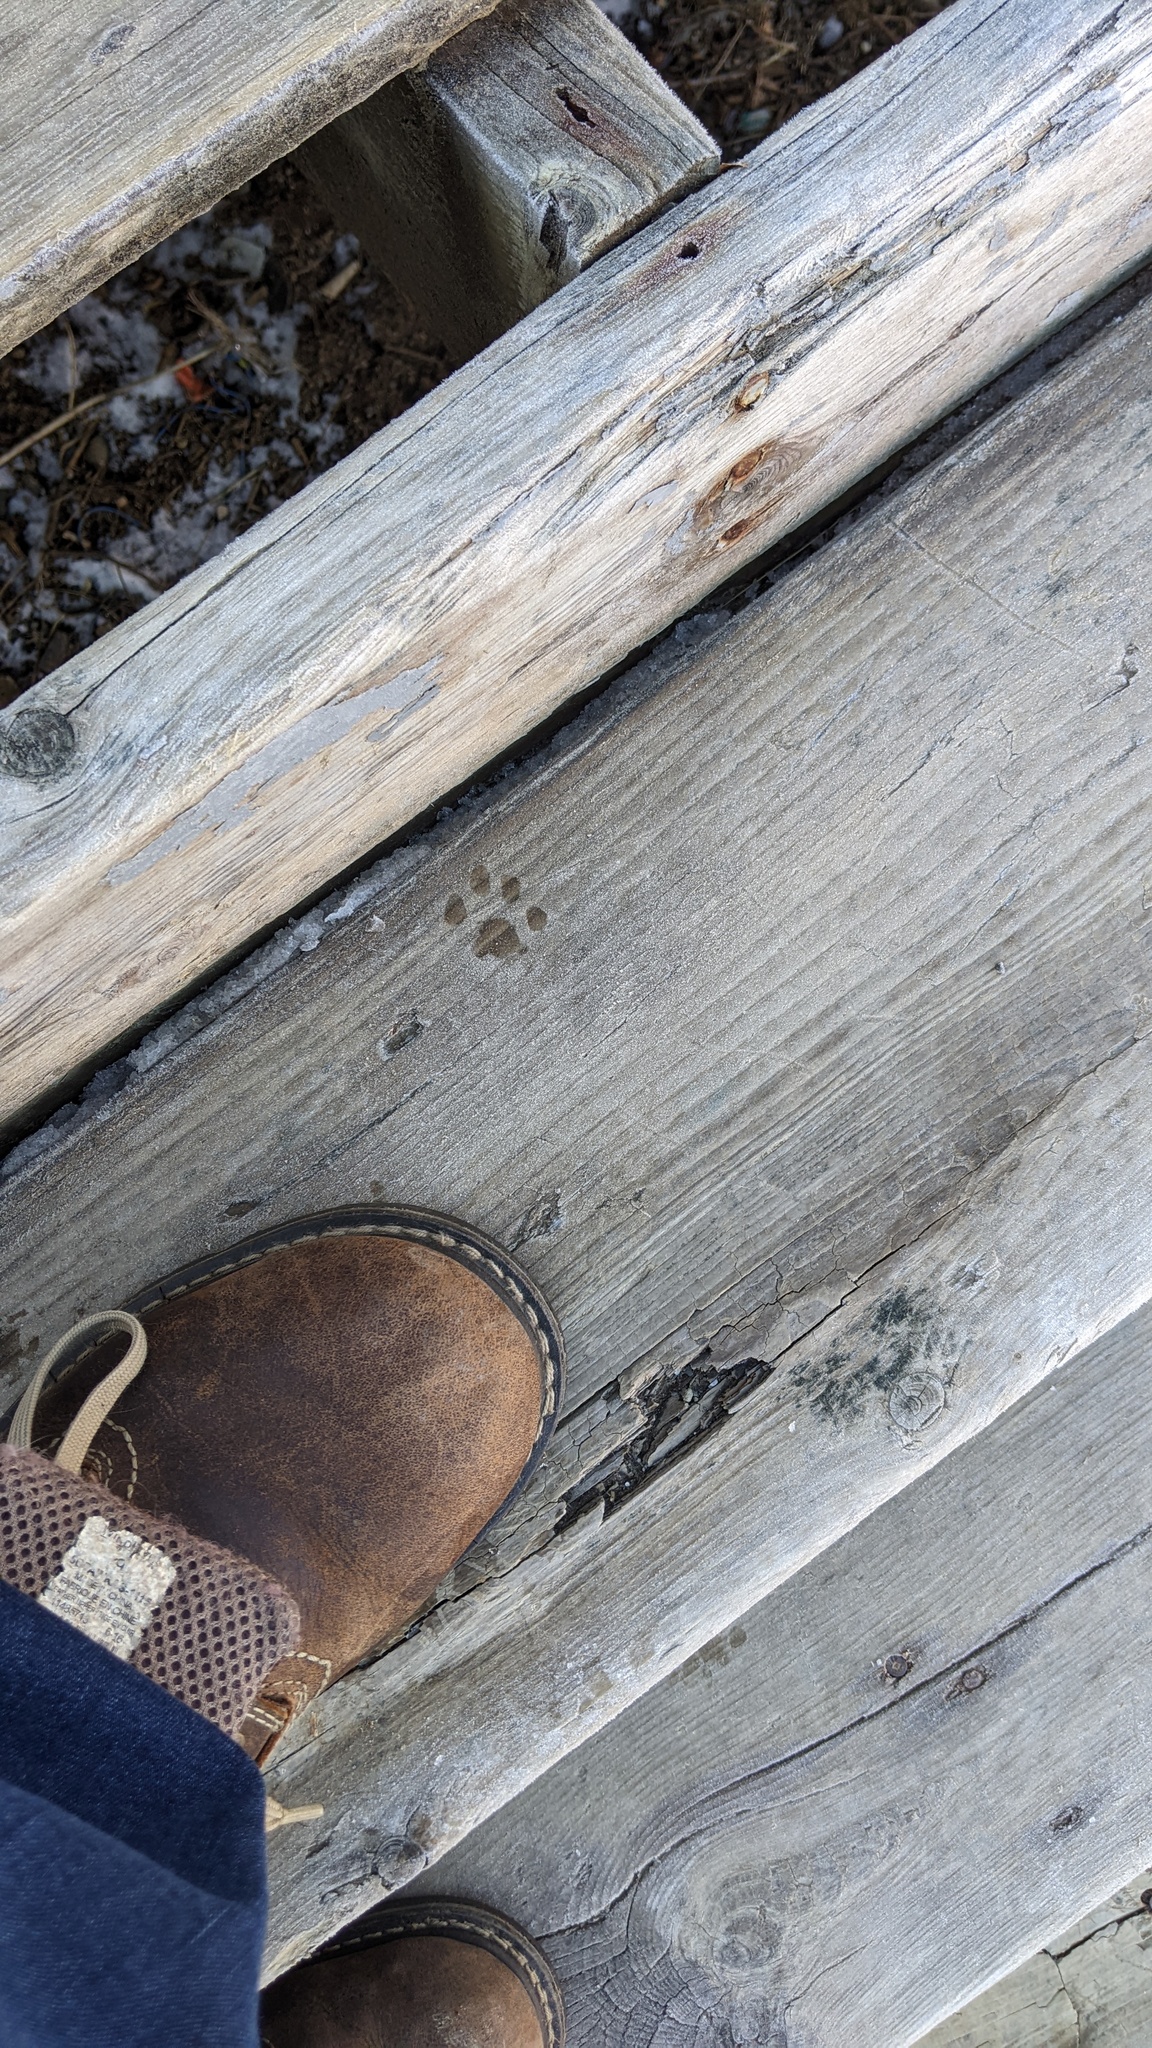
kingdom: Animalia
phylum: Chordata
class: Mammalia
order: Carnivora
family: Felidae
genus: Felis
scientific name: Felis catus
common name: Domestic cat
